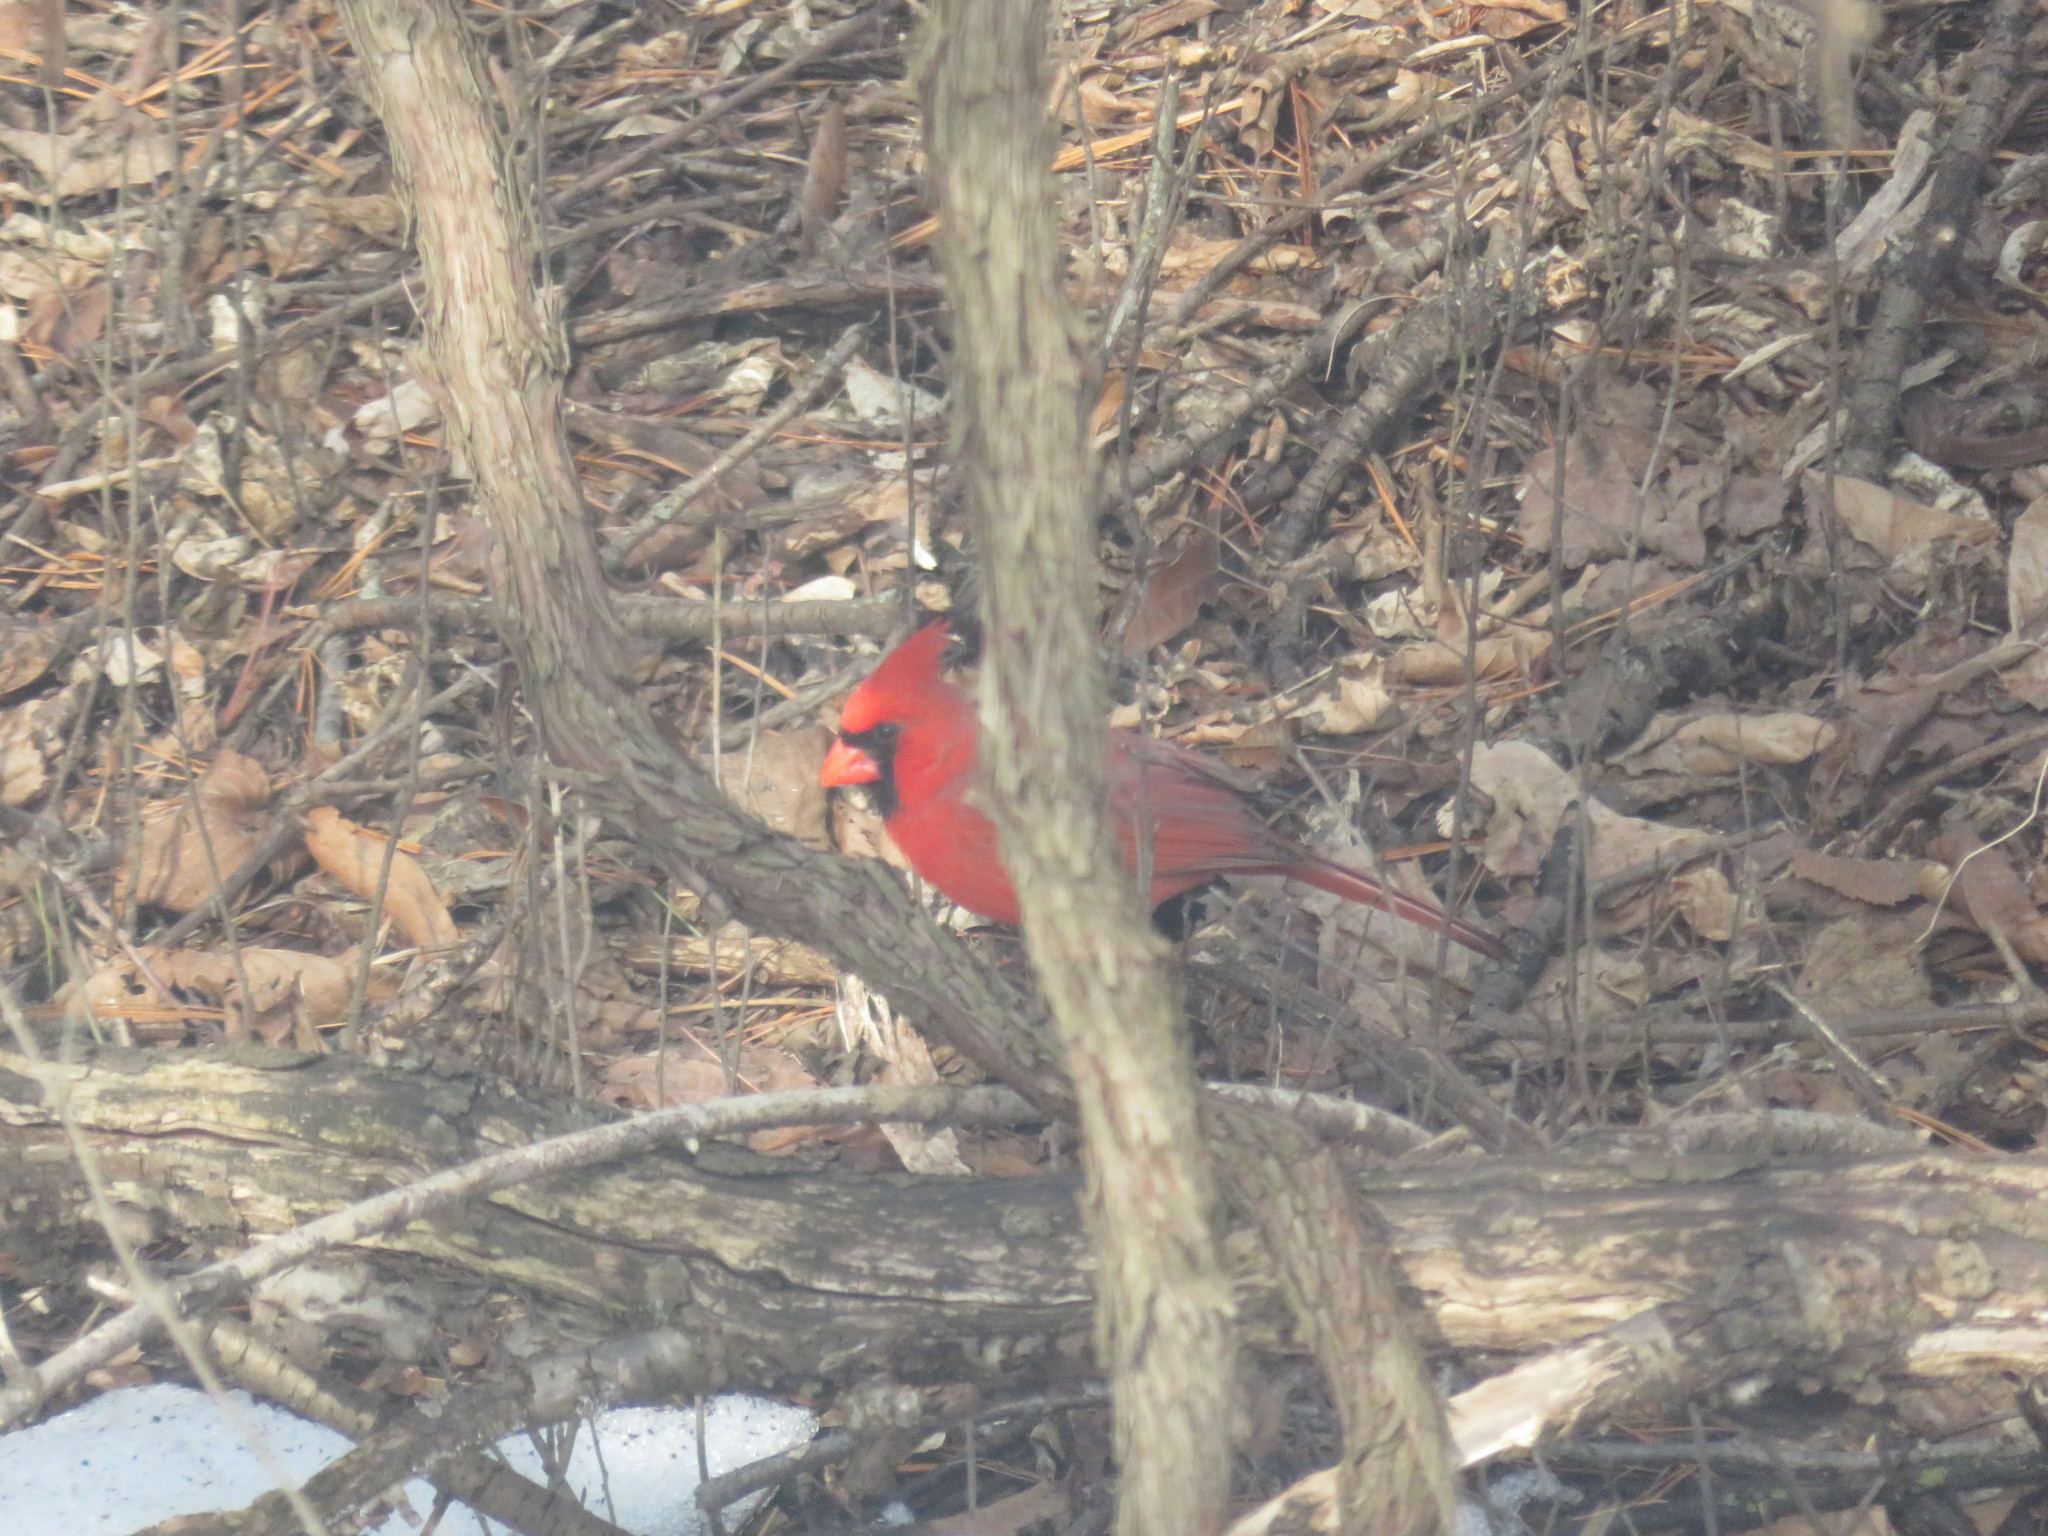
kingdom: Animalia
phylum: Chordata
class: Aves
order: Passeriformes
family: Cardinalidae
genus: Cardinalis
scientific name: Cardinalis cardinalis
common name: Northern cardinal
